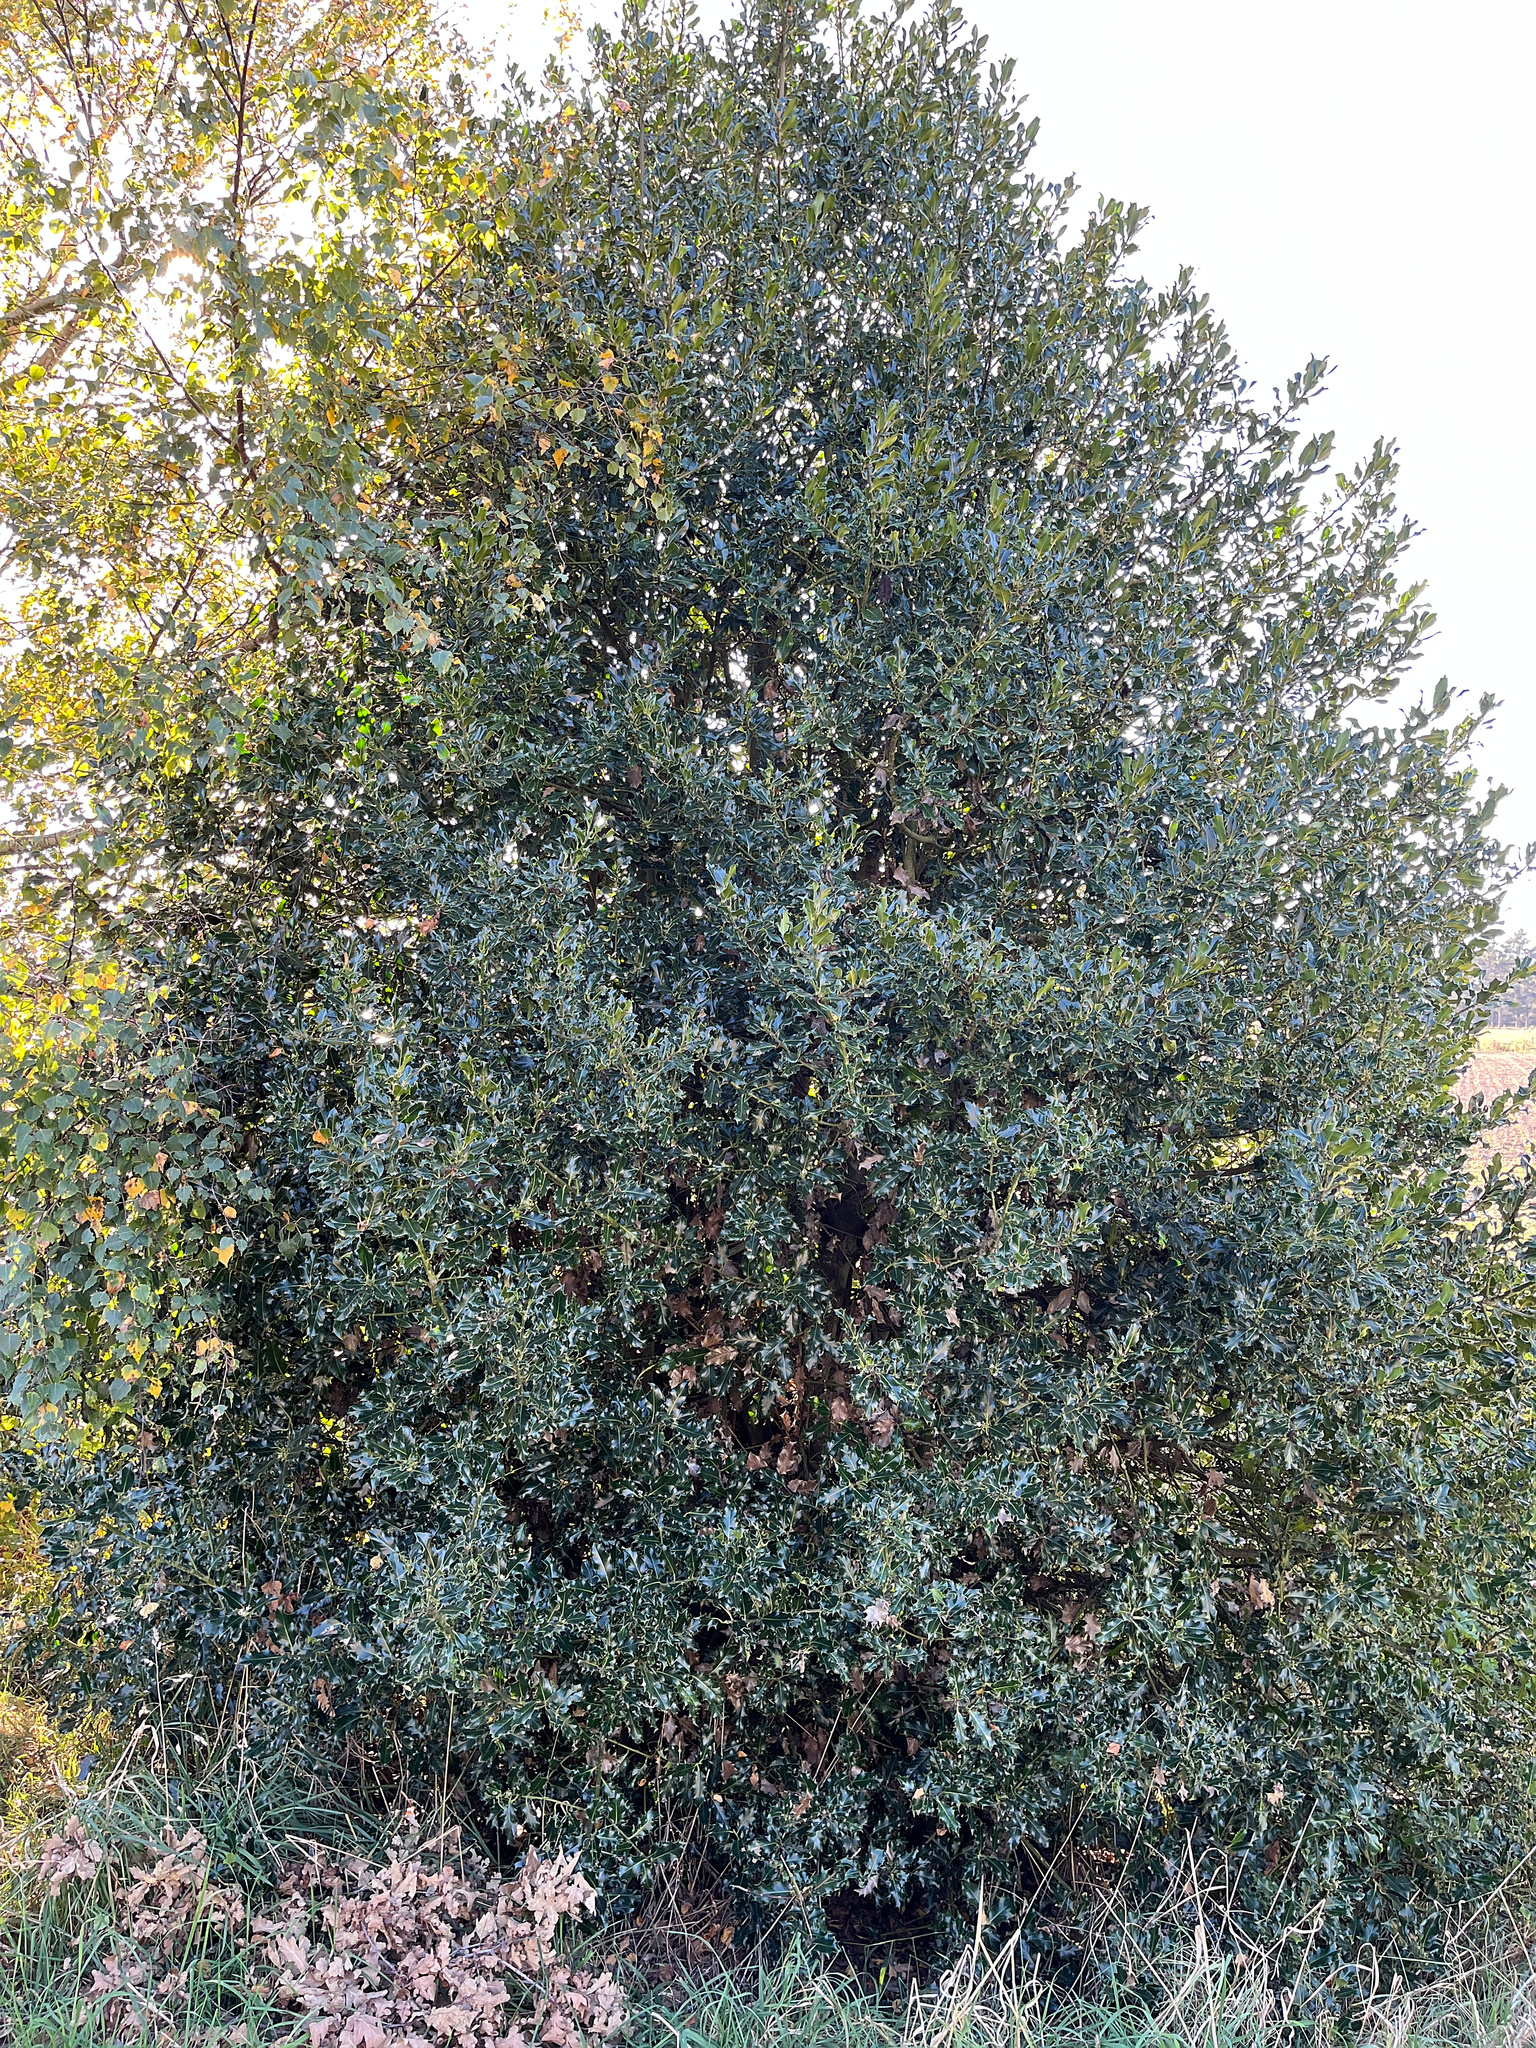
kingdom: Plantae
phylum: Tracheophyta
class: Magnoliopsida
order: Aquifoliales
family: Aquifoliaceae
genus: Ilex
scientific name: Ilex aquifolium
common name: English holly
